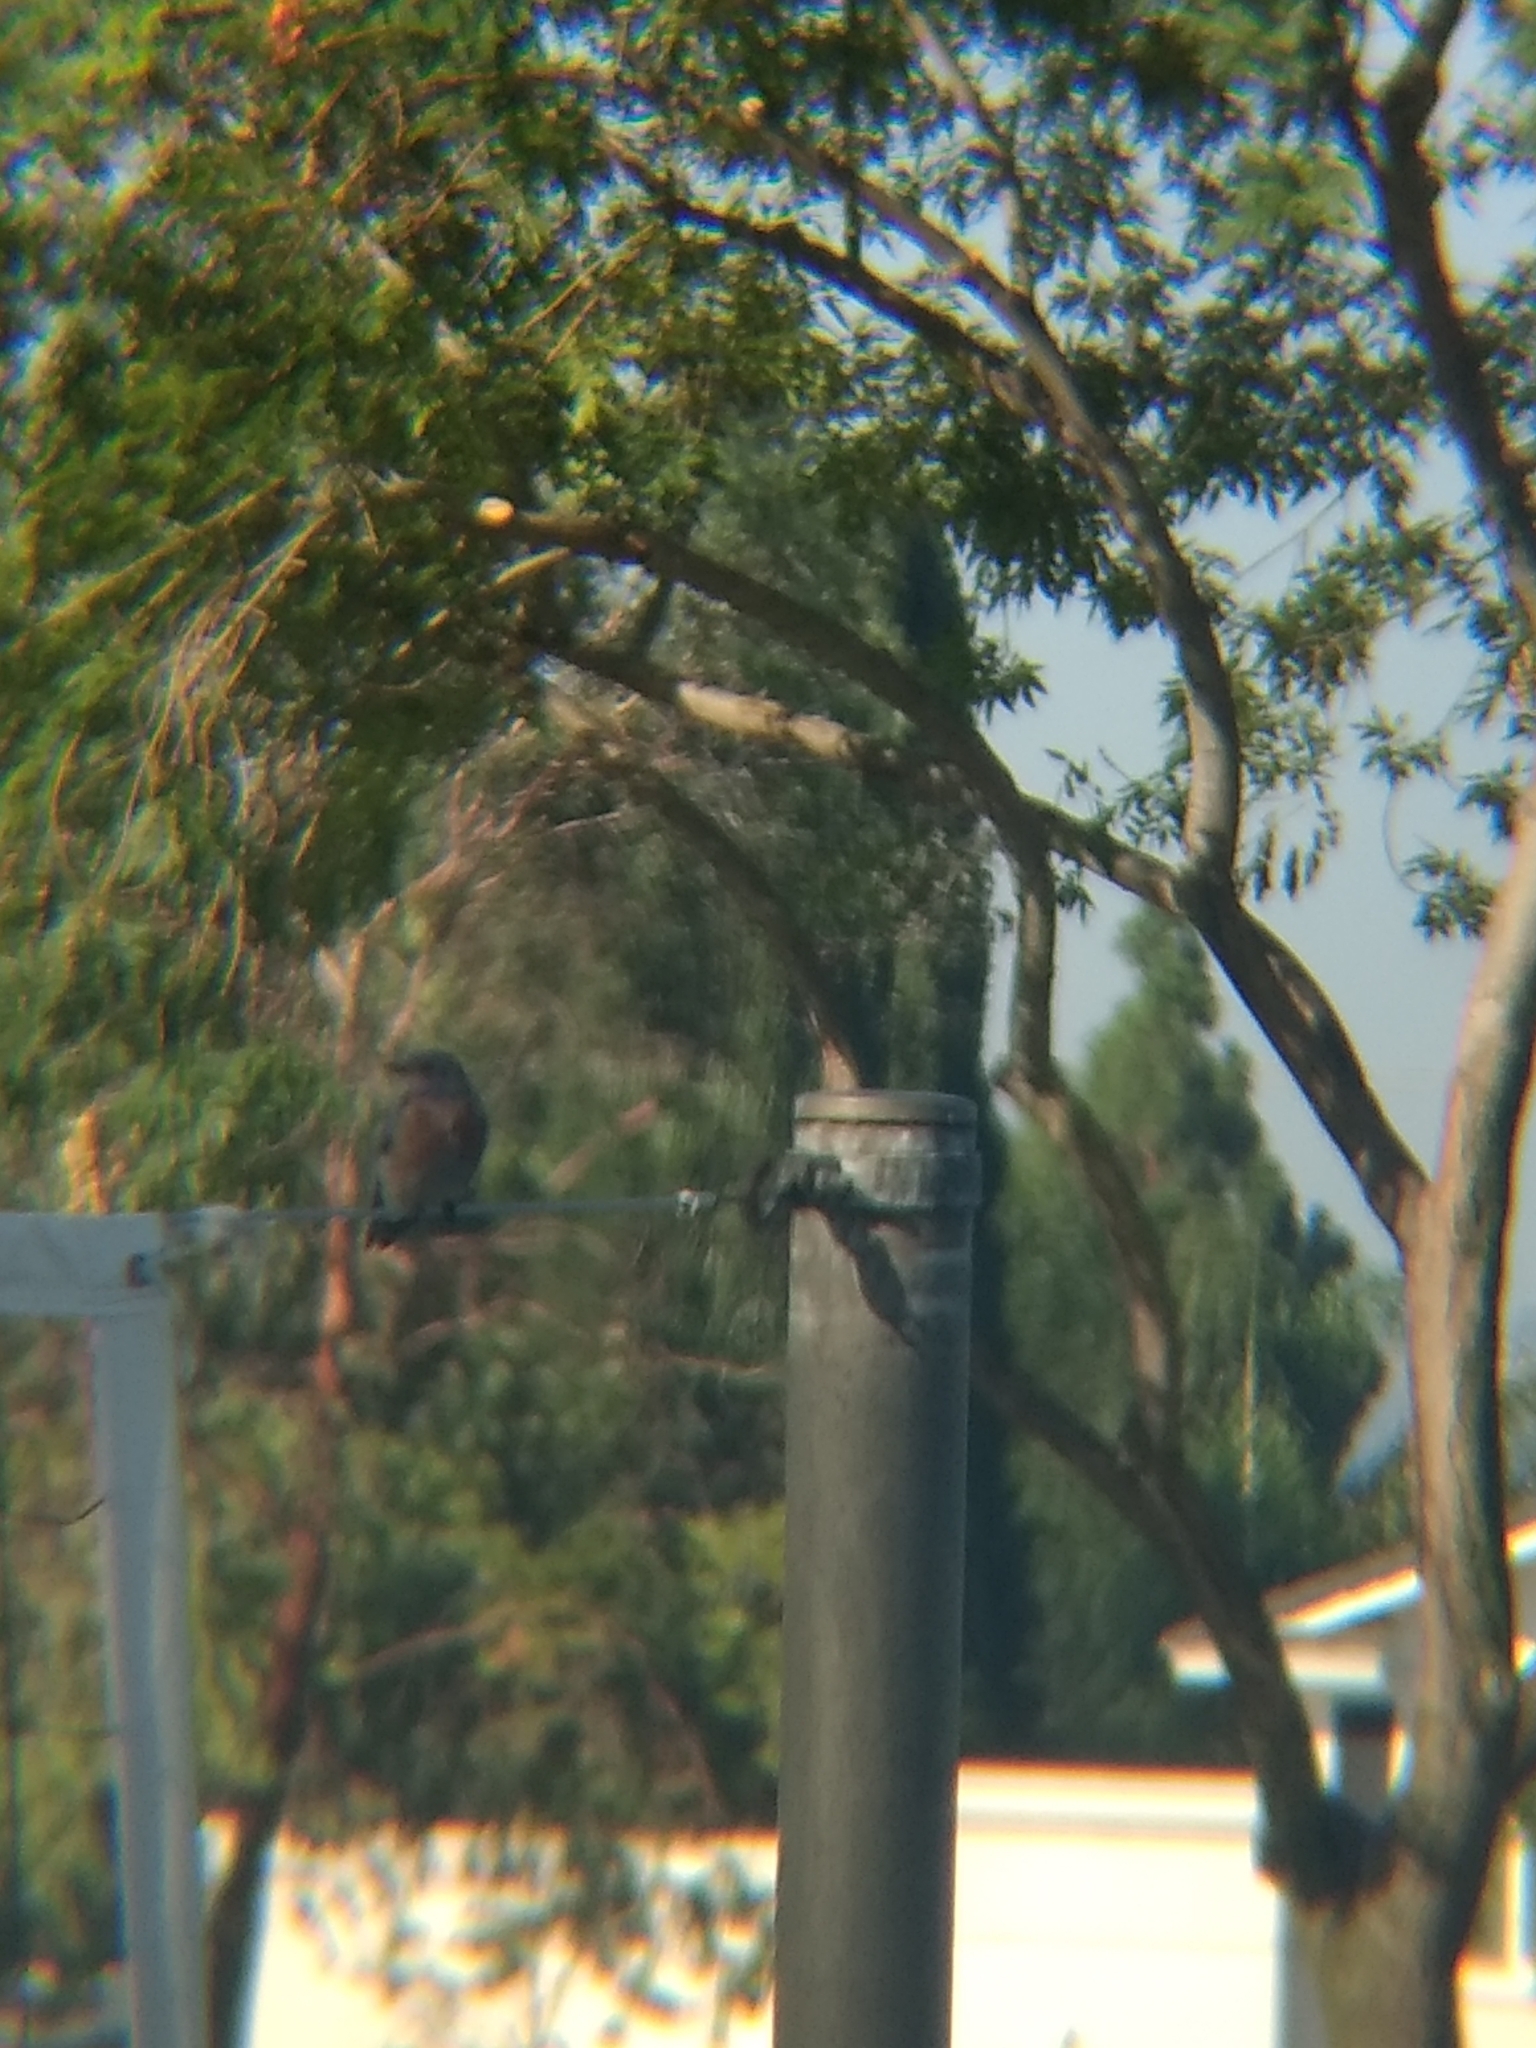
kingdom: Animalia
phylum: Chordata
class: Aves
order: Passeriformes
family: Turdidae
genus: Sialia
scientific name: Sialia mexicana
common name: Western bluebird
